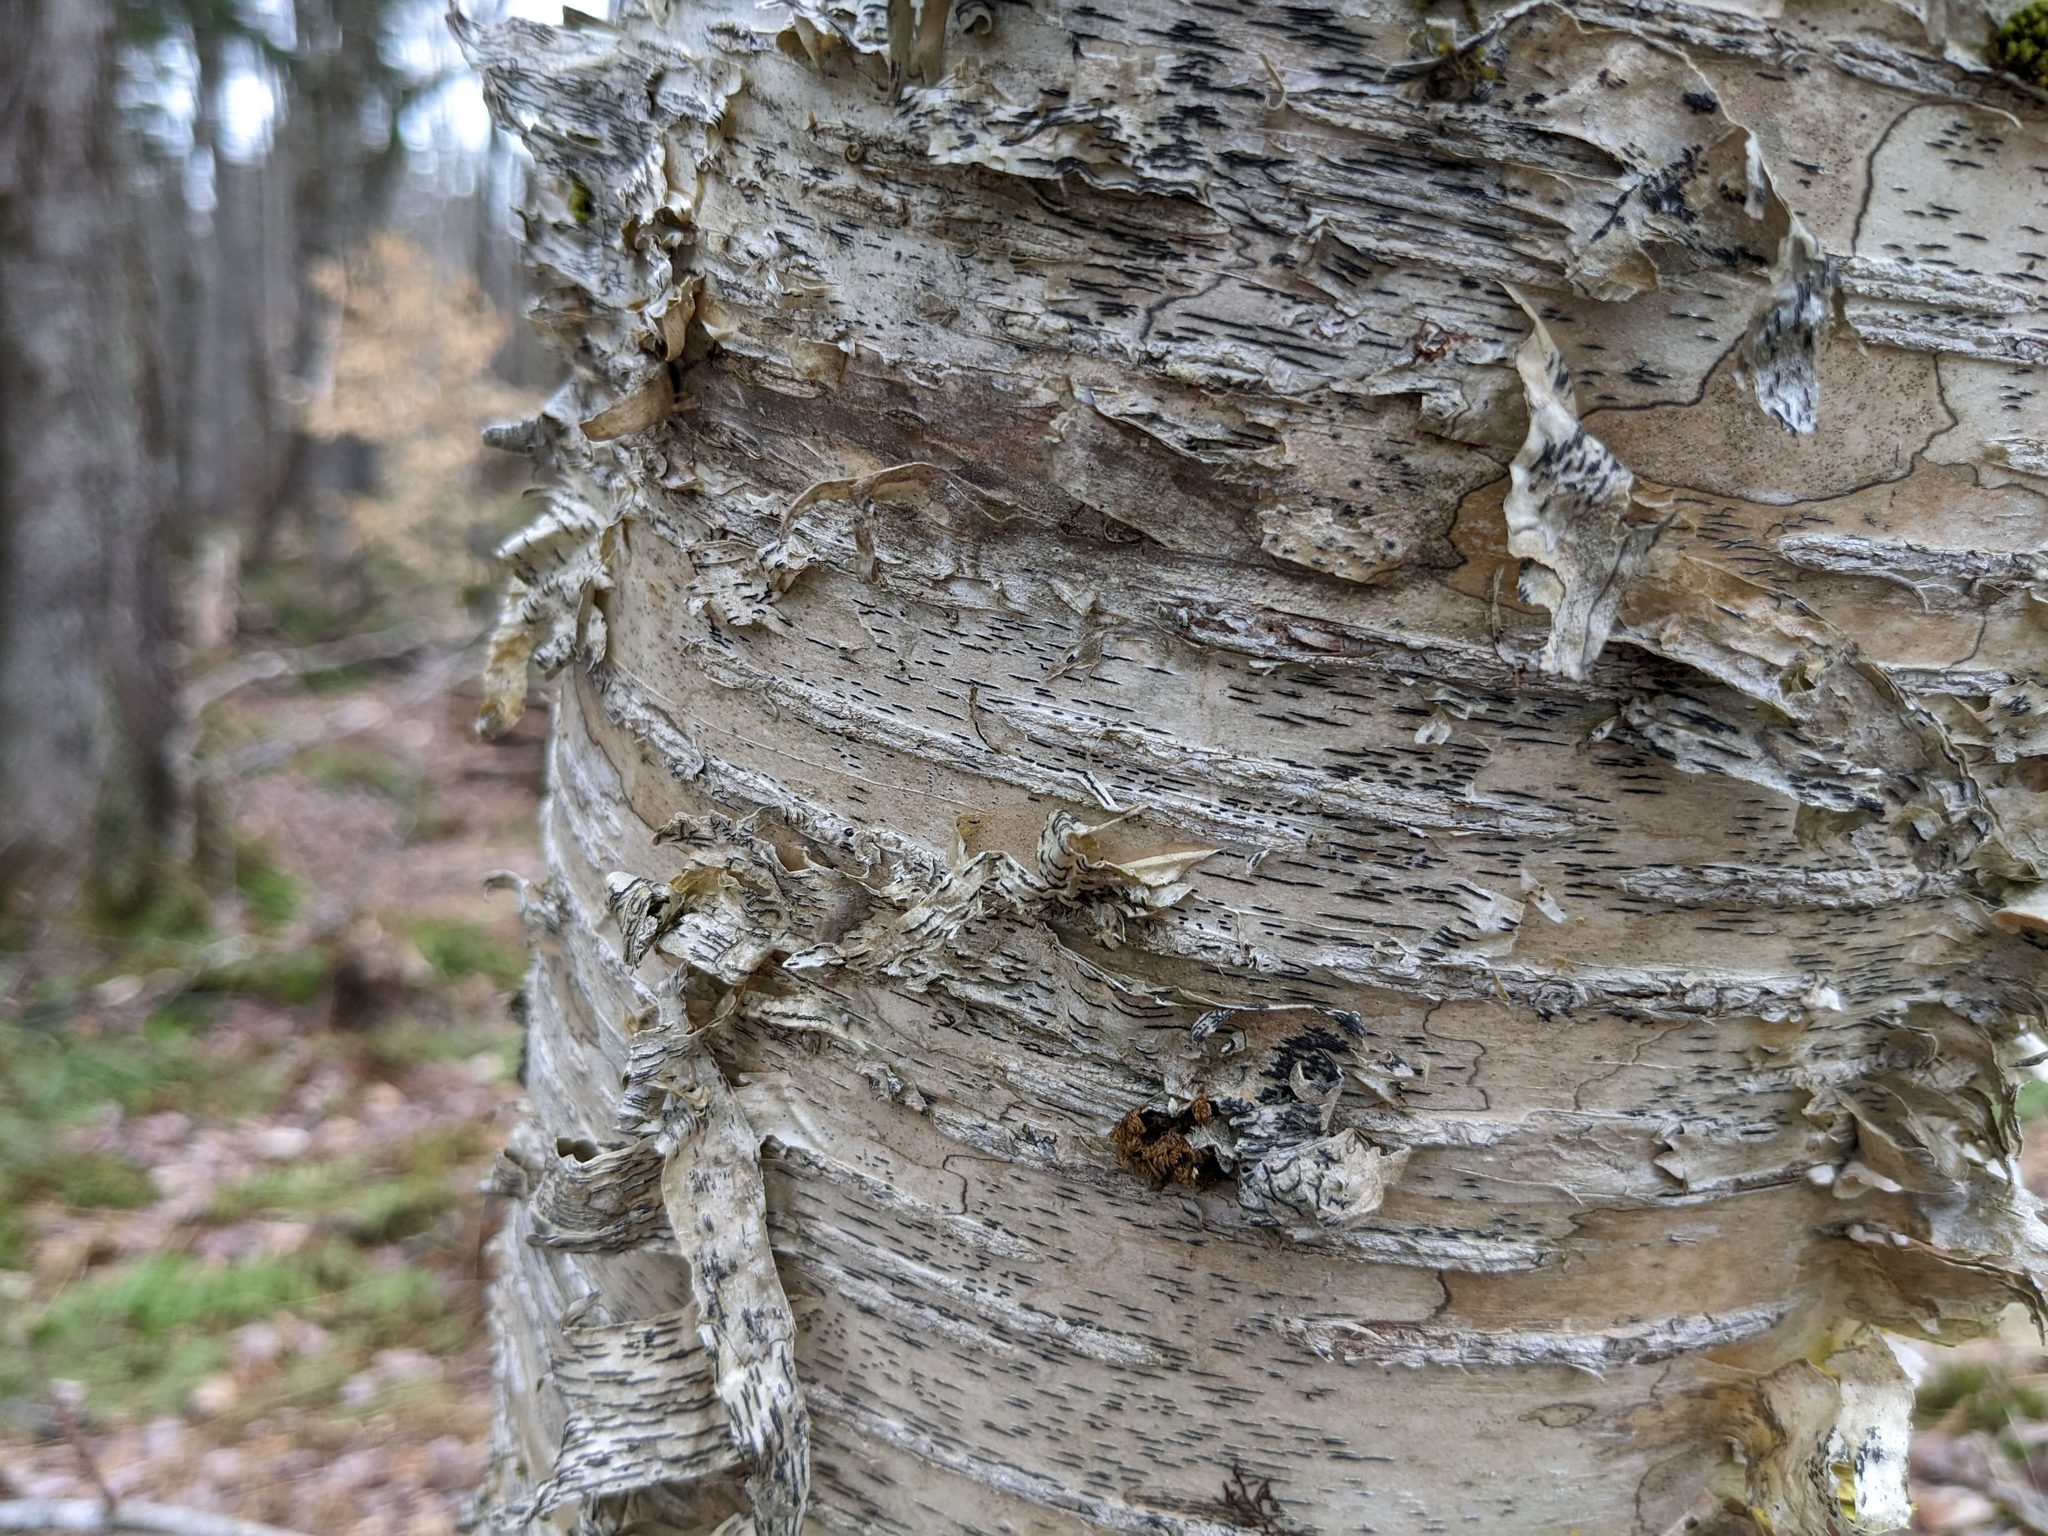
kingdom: Fungi
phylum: Ascomycota
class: Lecanoromycetes
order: Ostropales
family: Graphidaceae
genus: Graphis
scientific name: Graphis scripta
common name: Script lichen
